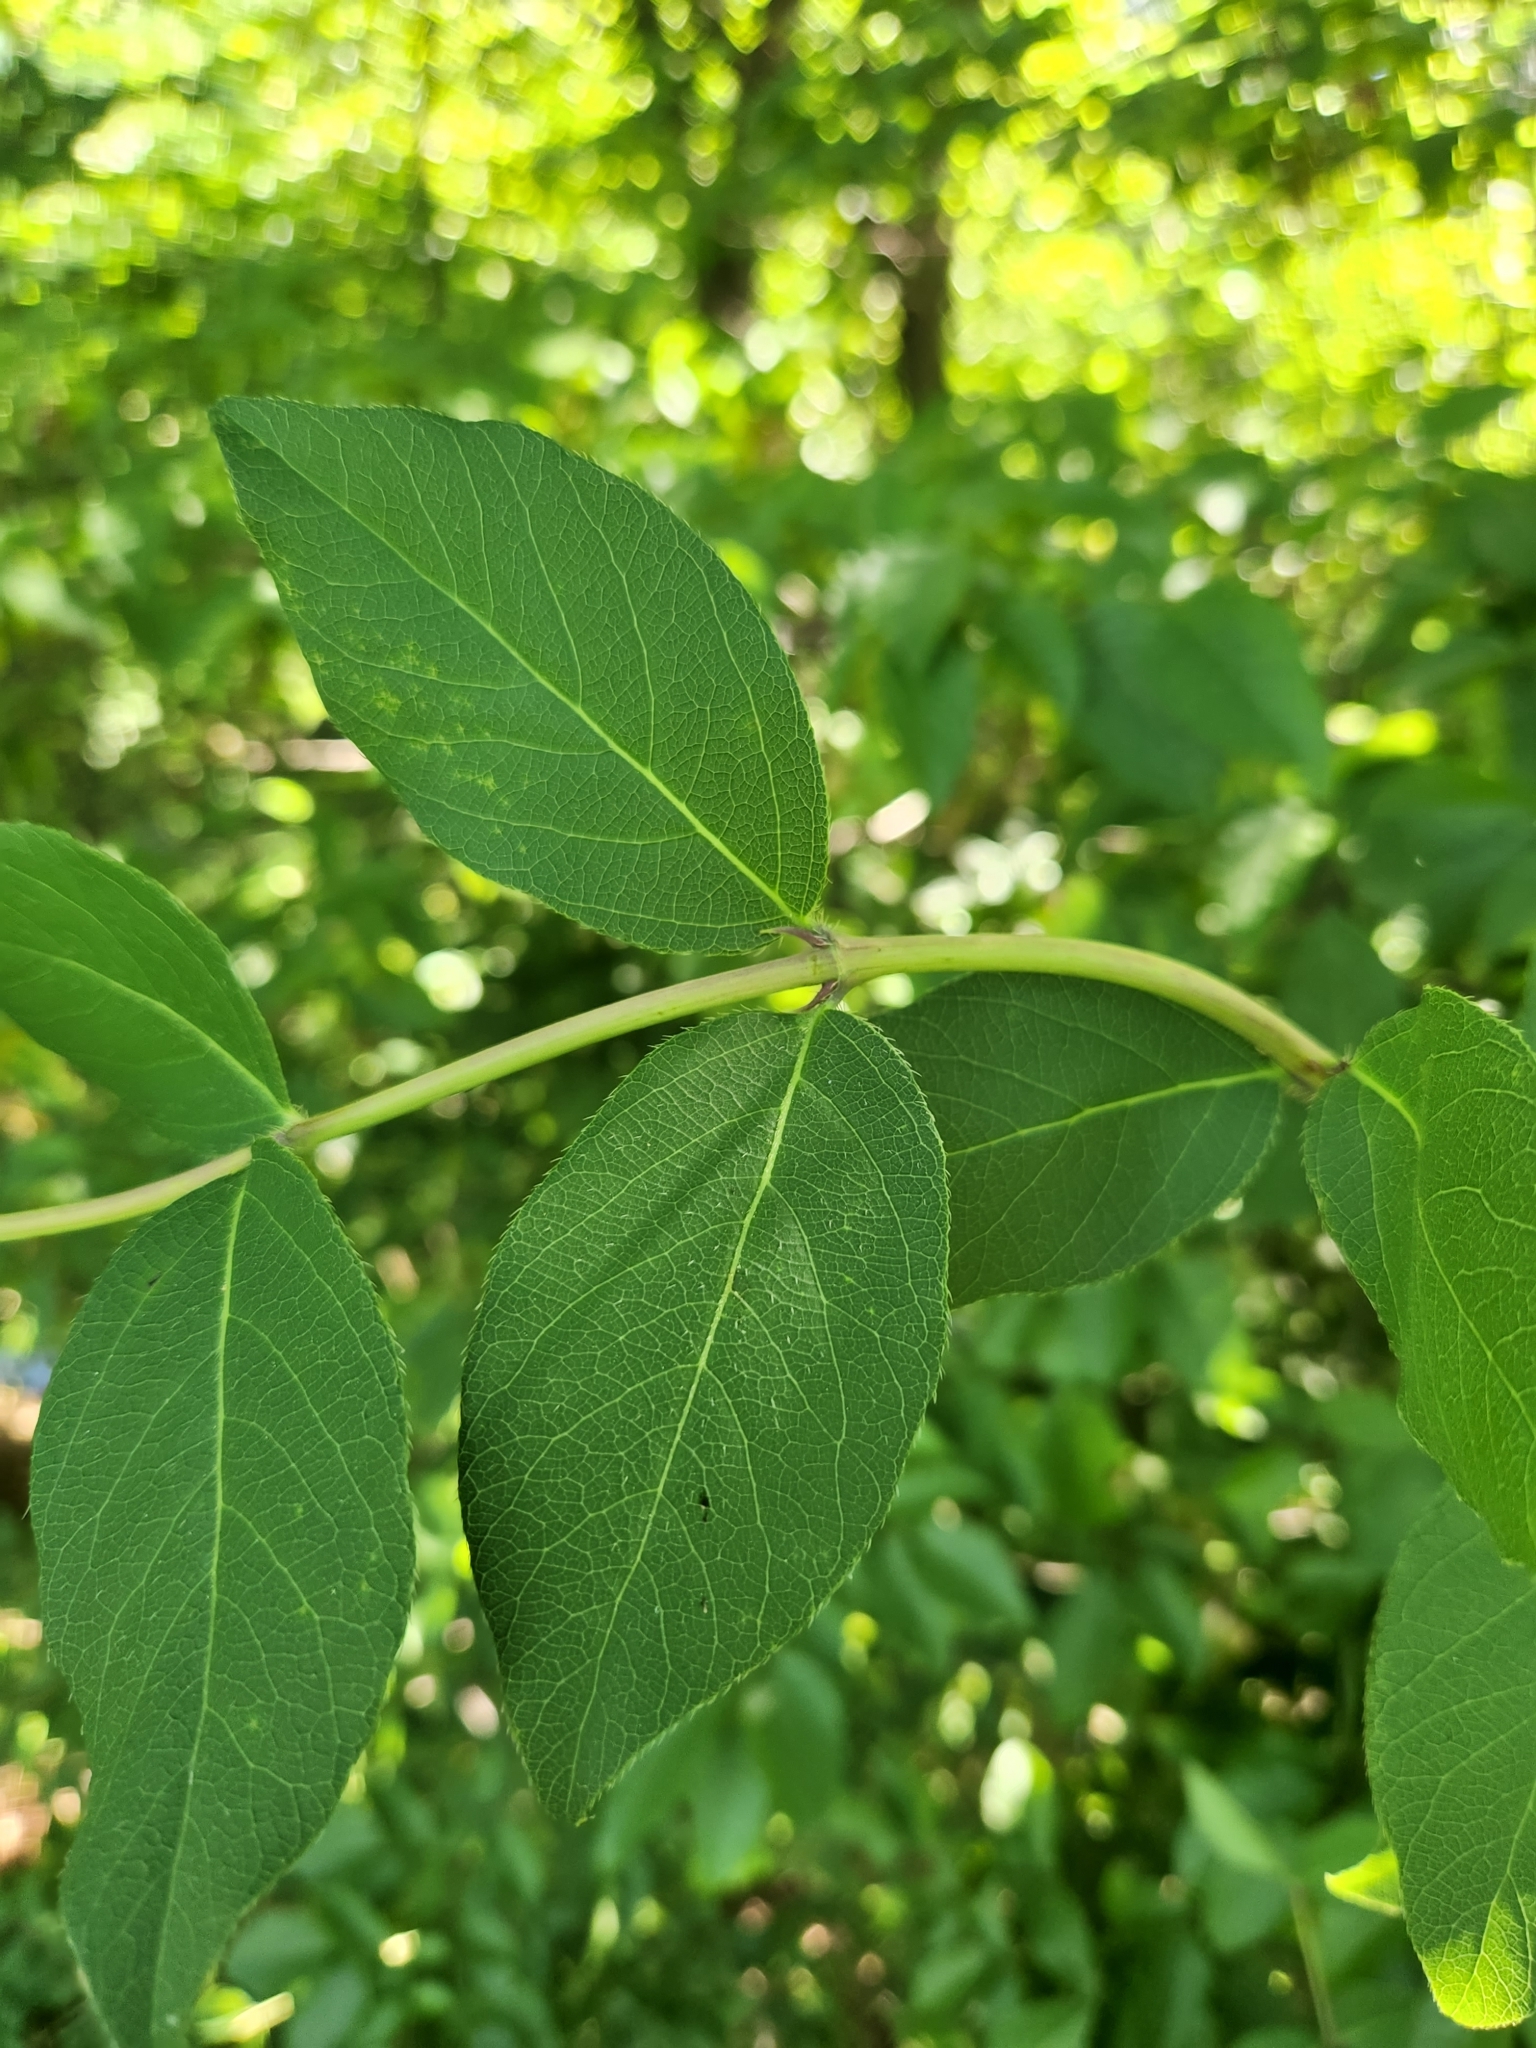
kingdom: Plantae
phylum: Tracheophyta
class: Magnoliopsida
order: Dipsacales
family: Caprifoliaceae
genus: Lonicera
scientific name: Lonicera fragrantissima
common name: Fragrant honeysuckle
